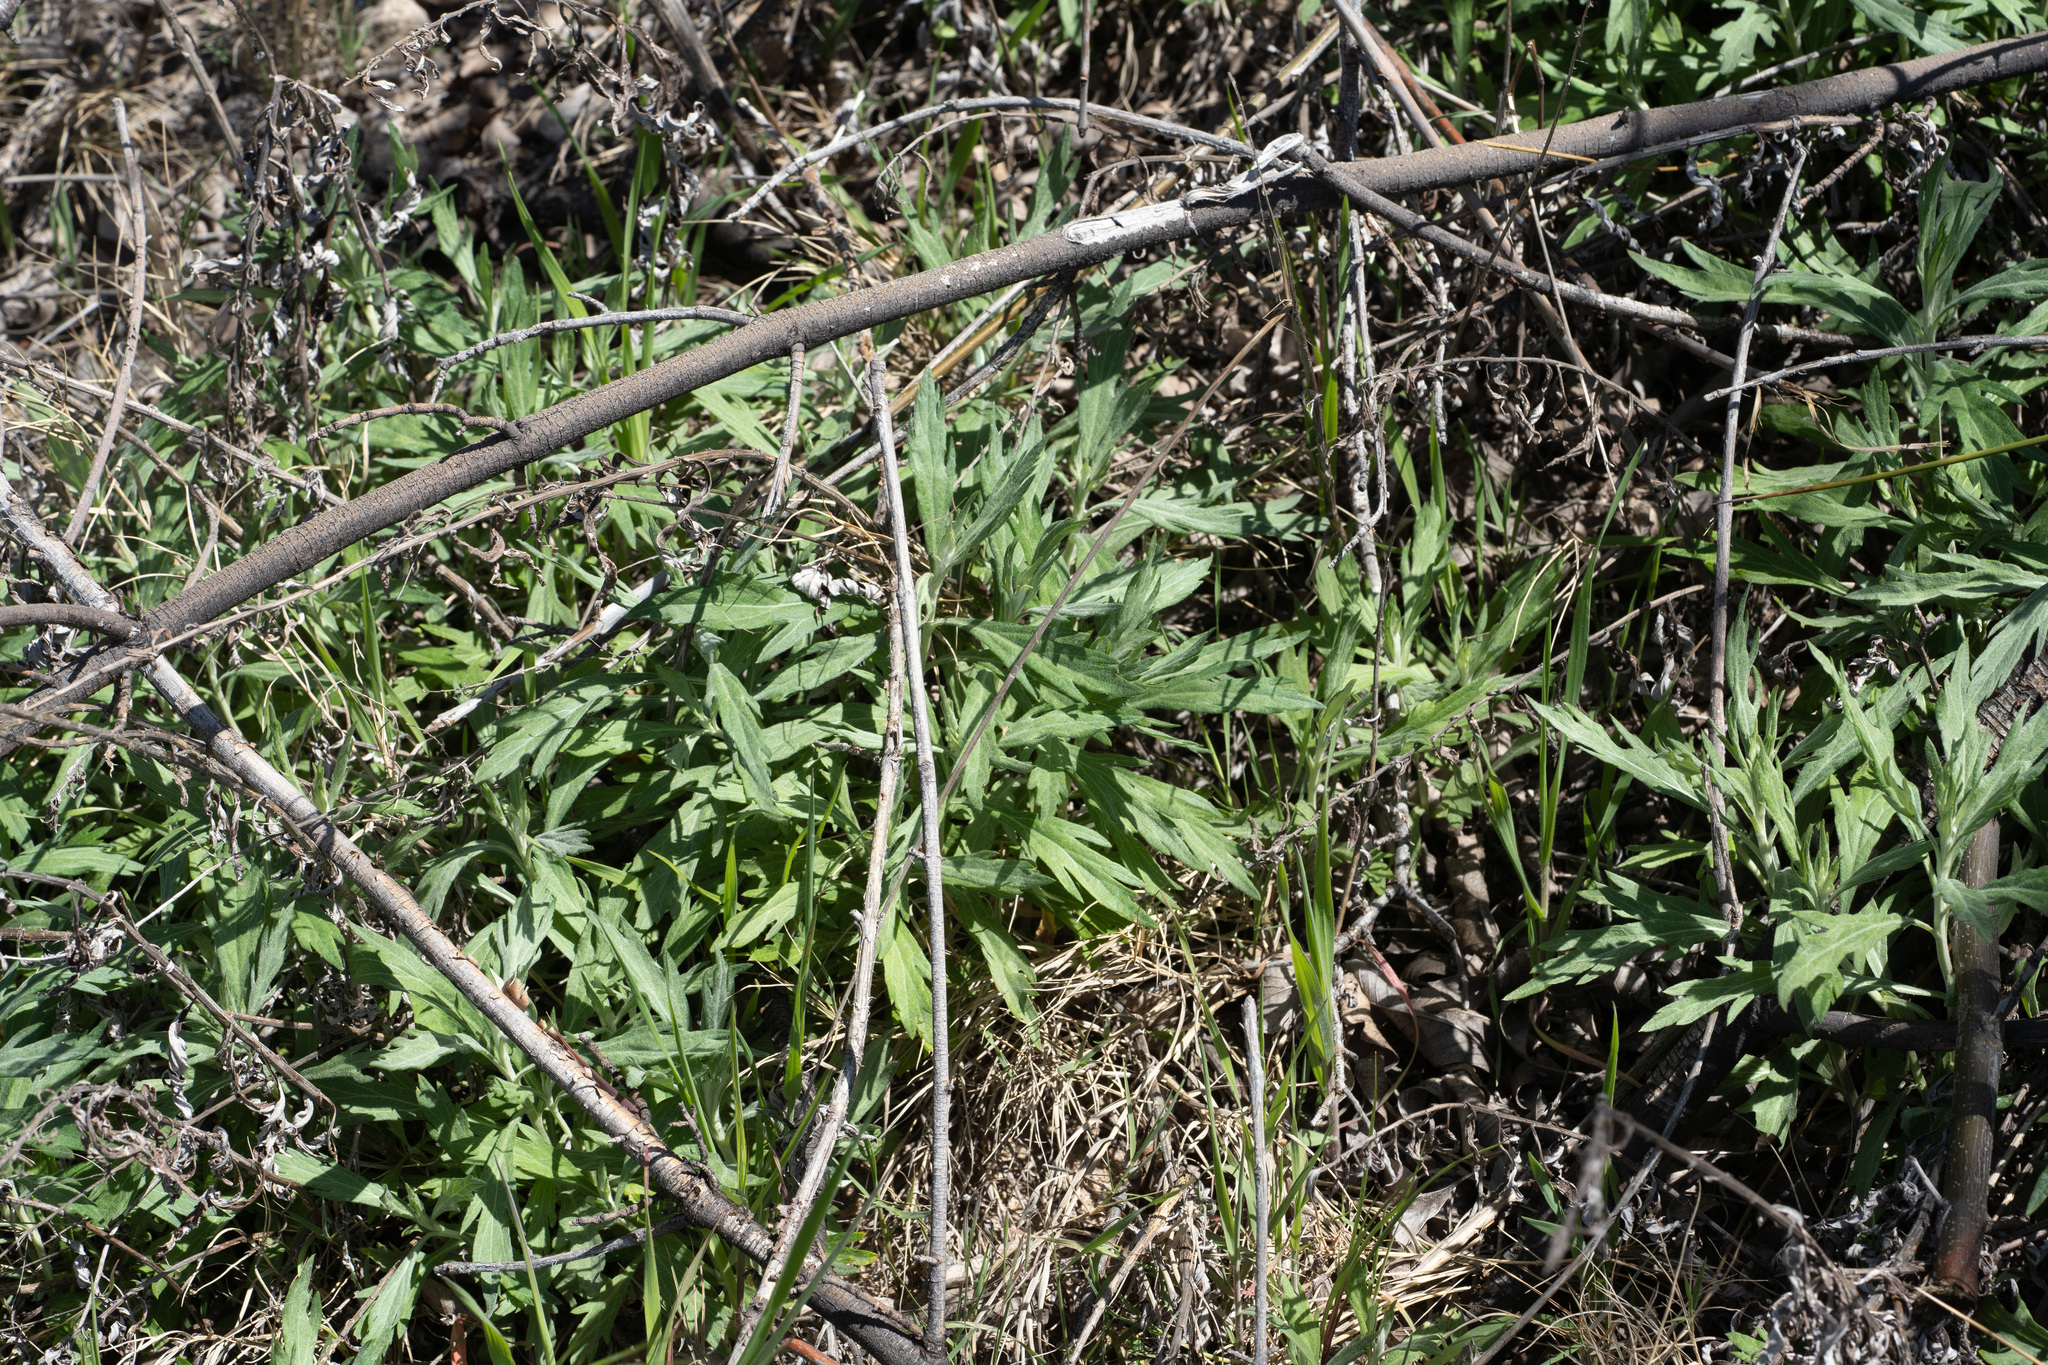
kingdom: Plantae
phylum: Tracheophyta
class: Magnoliopsida
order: Asterales
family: Asteraceae
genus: Artemisia
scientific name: Artemisia douglasiana
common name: Northwest mugwort
